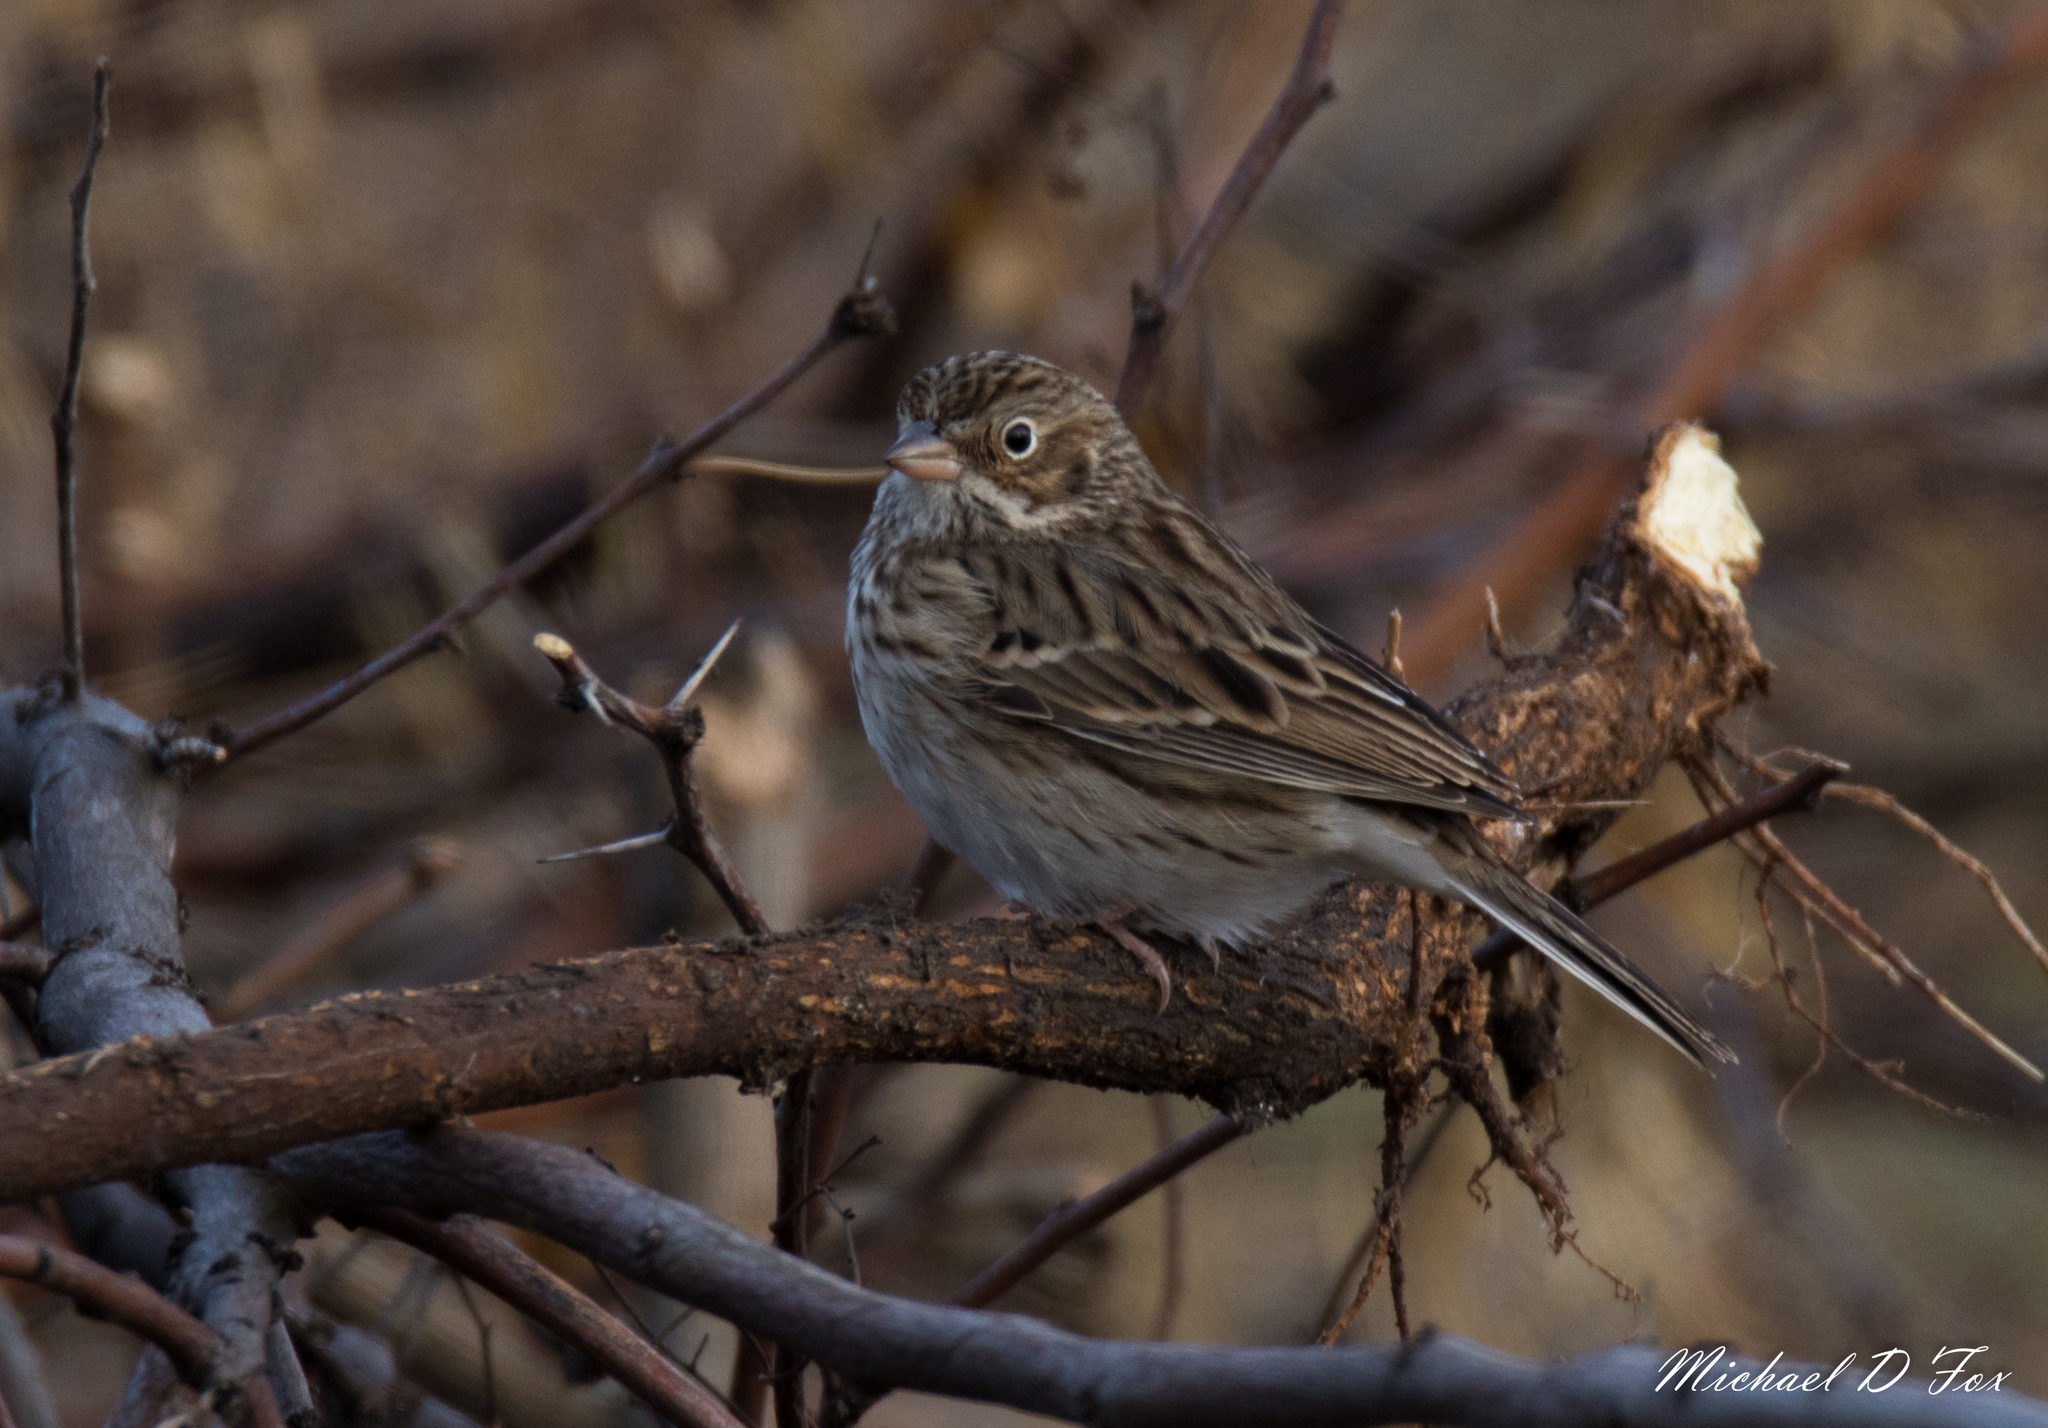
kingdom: Animalia
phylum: Chordata
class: Aves
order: Passeriformes
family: Passerellidae
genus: Pooecetes
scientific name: Pooecetes gramineus
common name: Vesper sparrow
